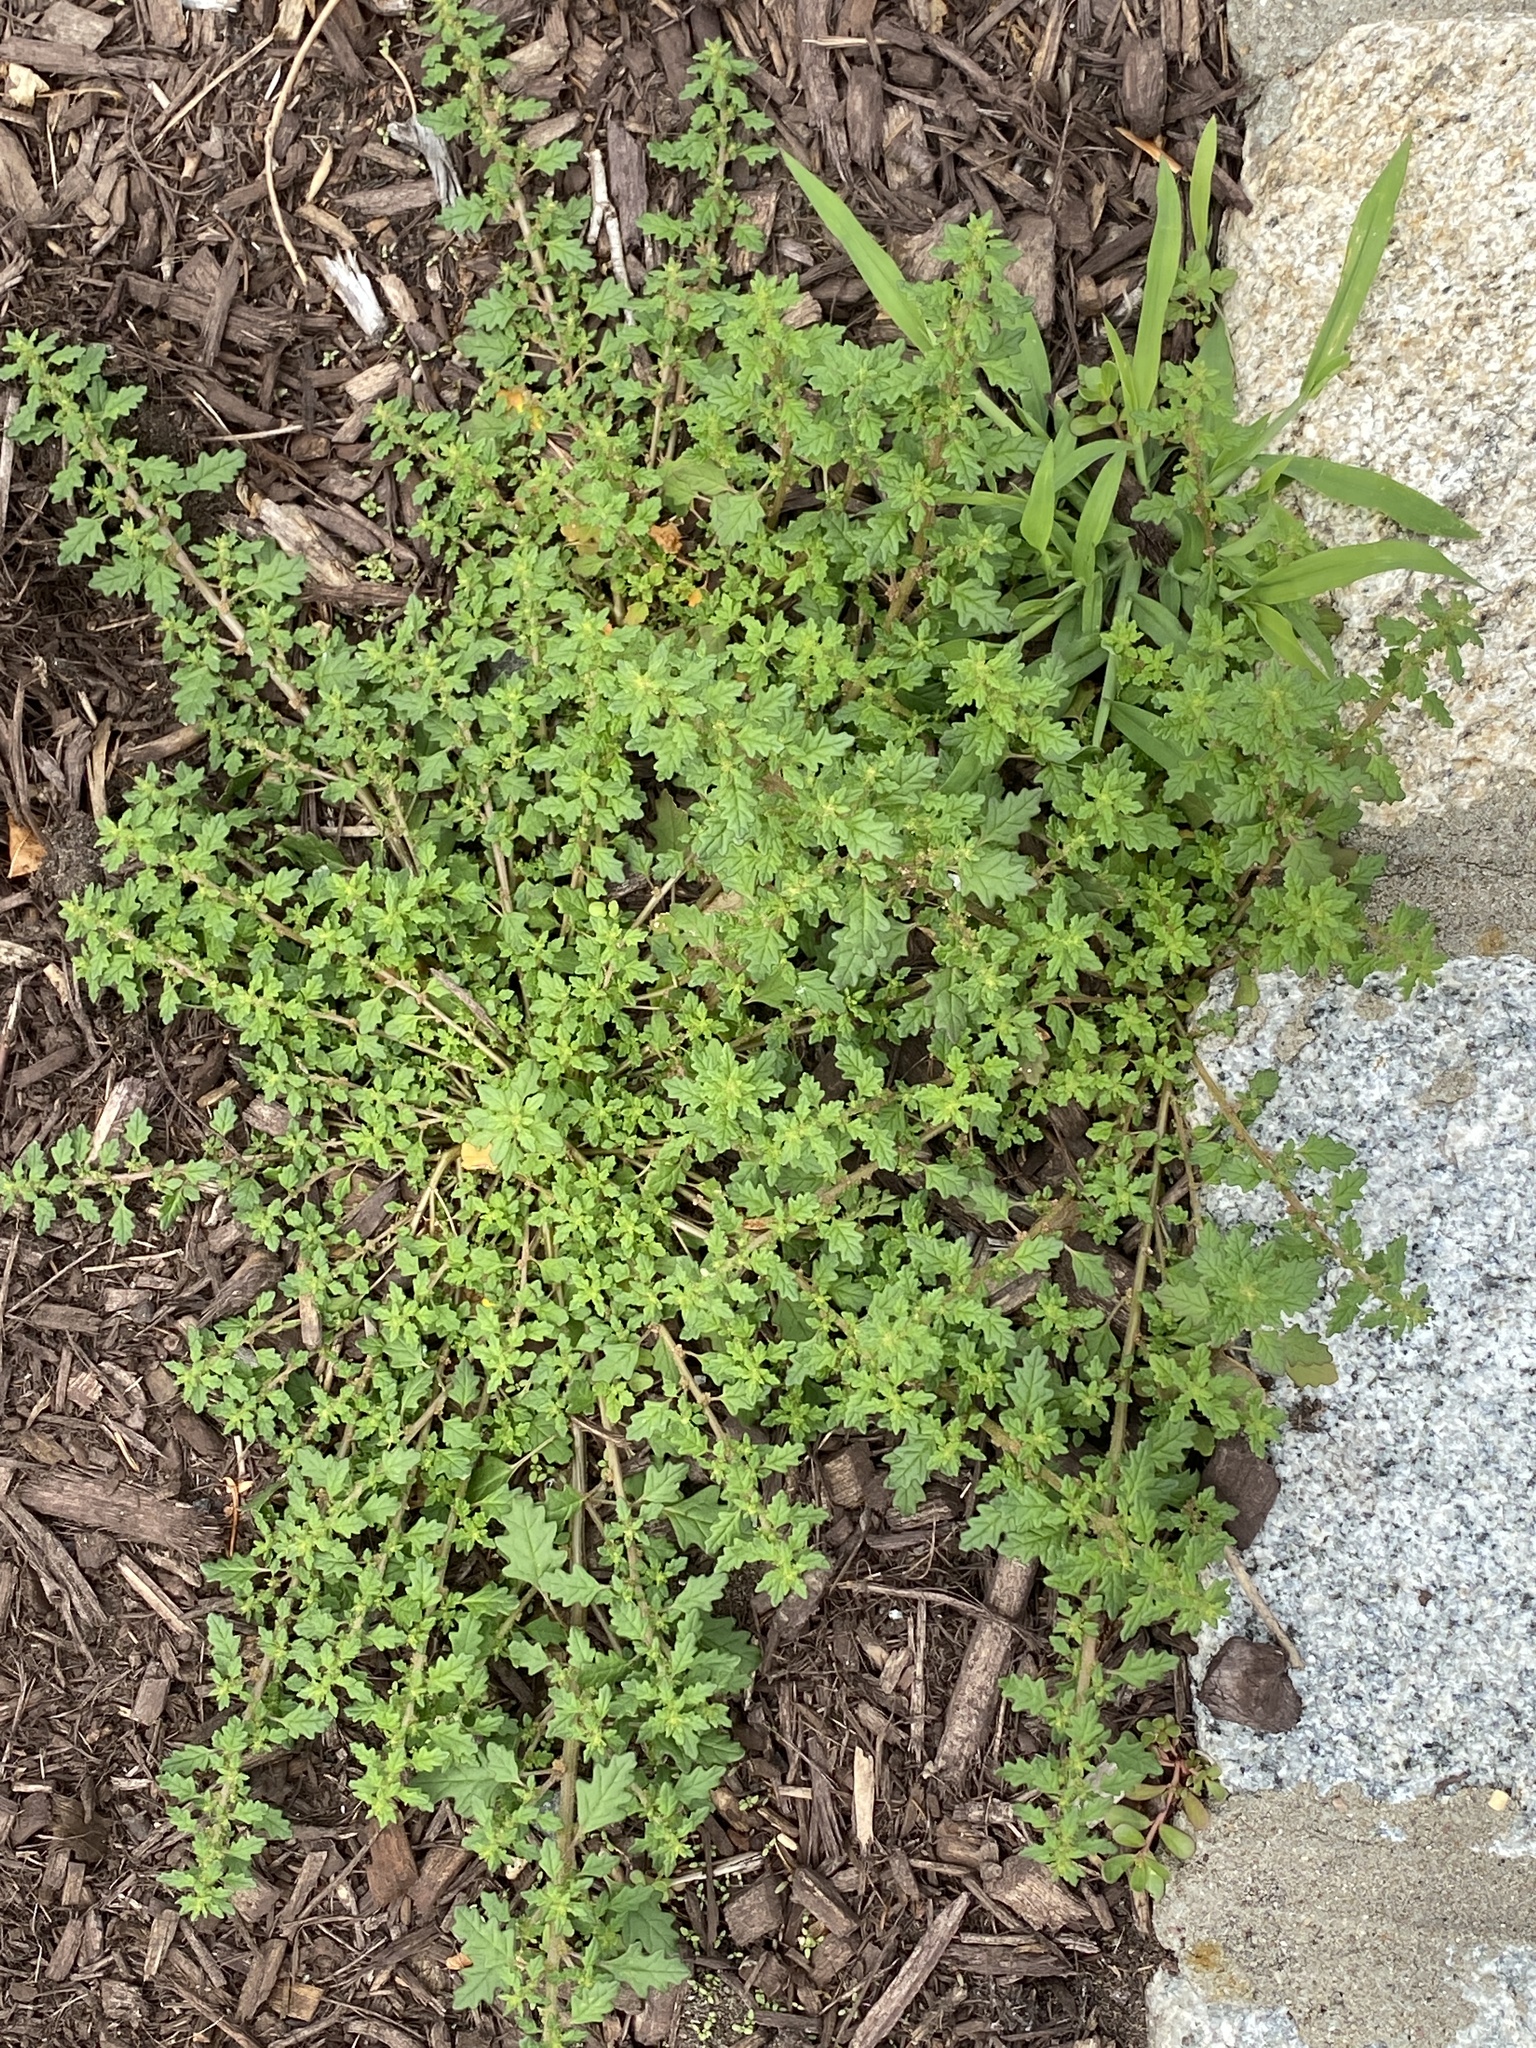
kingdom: Plantae
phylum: Tracheophyta
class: Magnoliopsida
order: Caryophyllales
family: Amaranthaceae
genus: Dysphania
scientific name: Dysphania pumilio
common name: Clammy goosefoot
